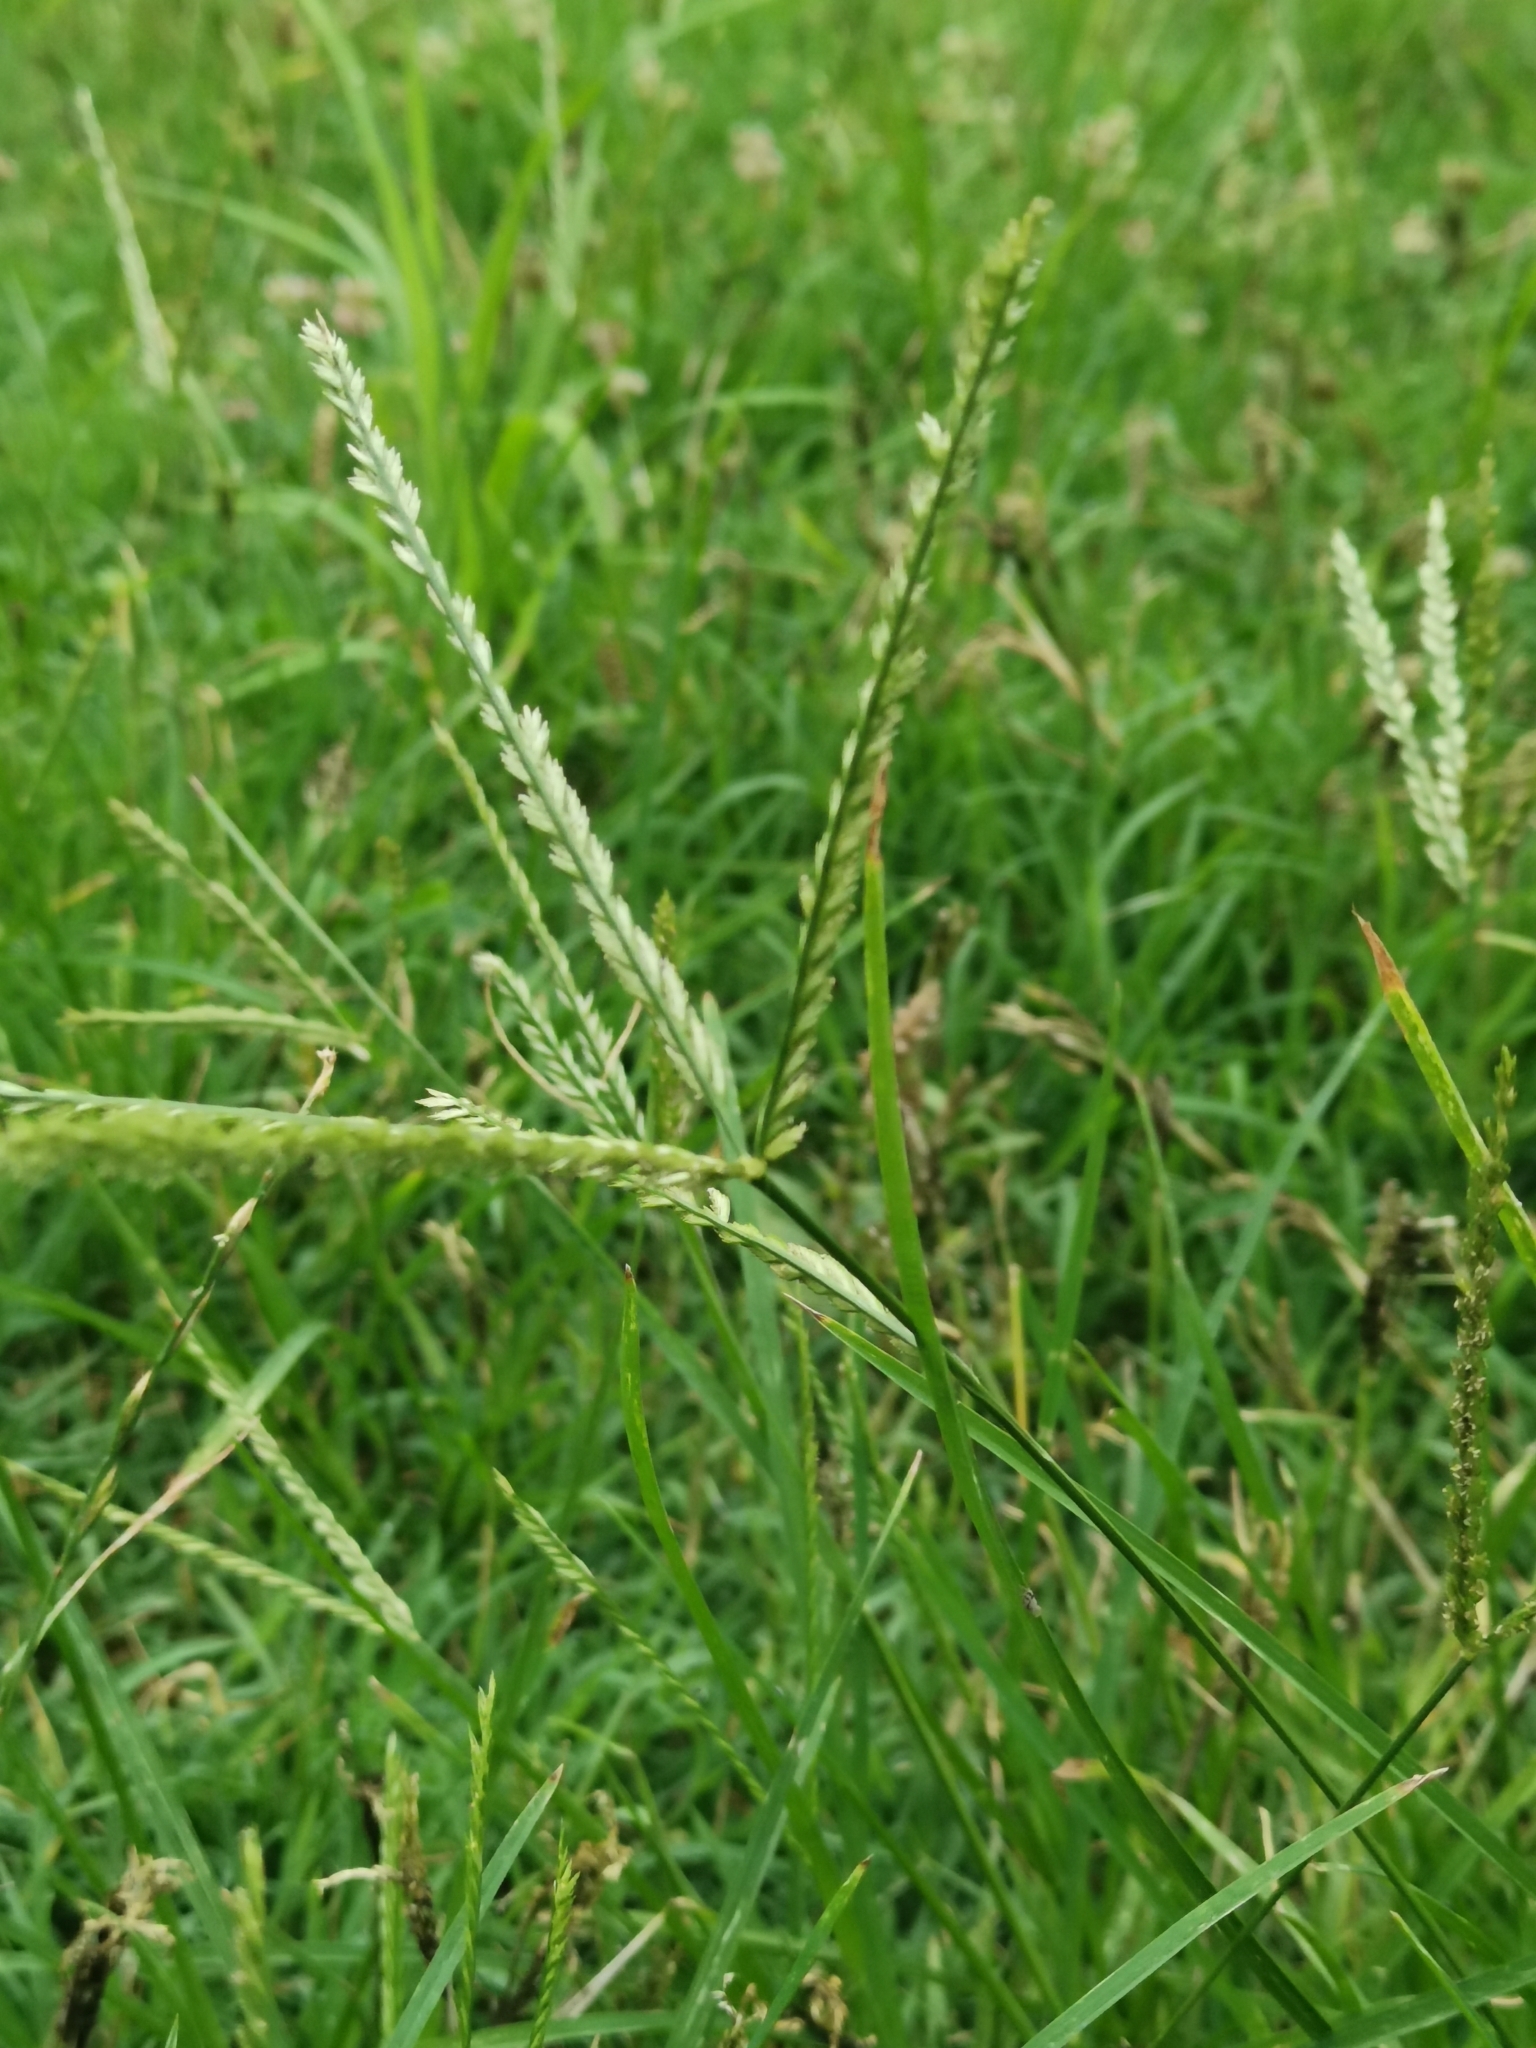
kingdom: Plantae
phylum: Tracheophyta
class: Liliopsida
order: Poales
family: Poaceae
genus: Eleusine
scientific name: Eleusine indica
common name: Yard-grass
